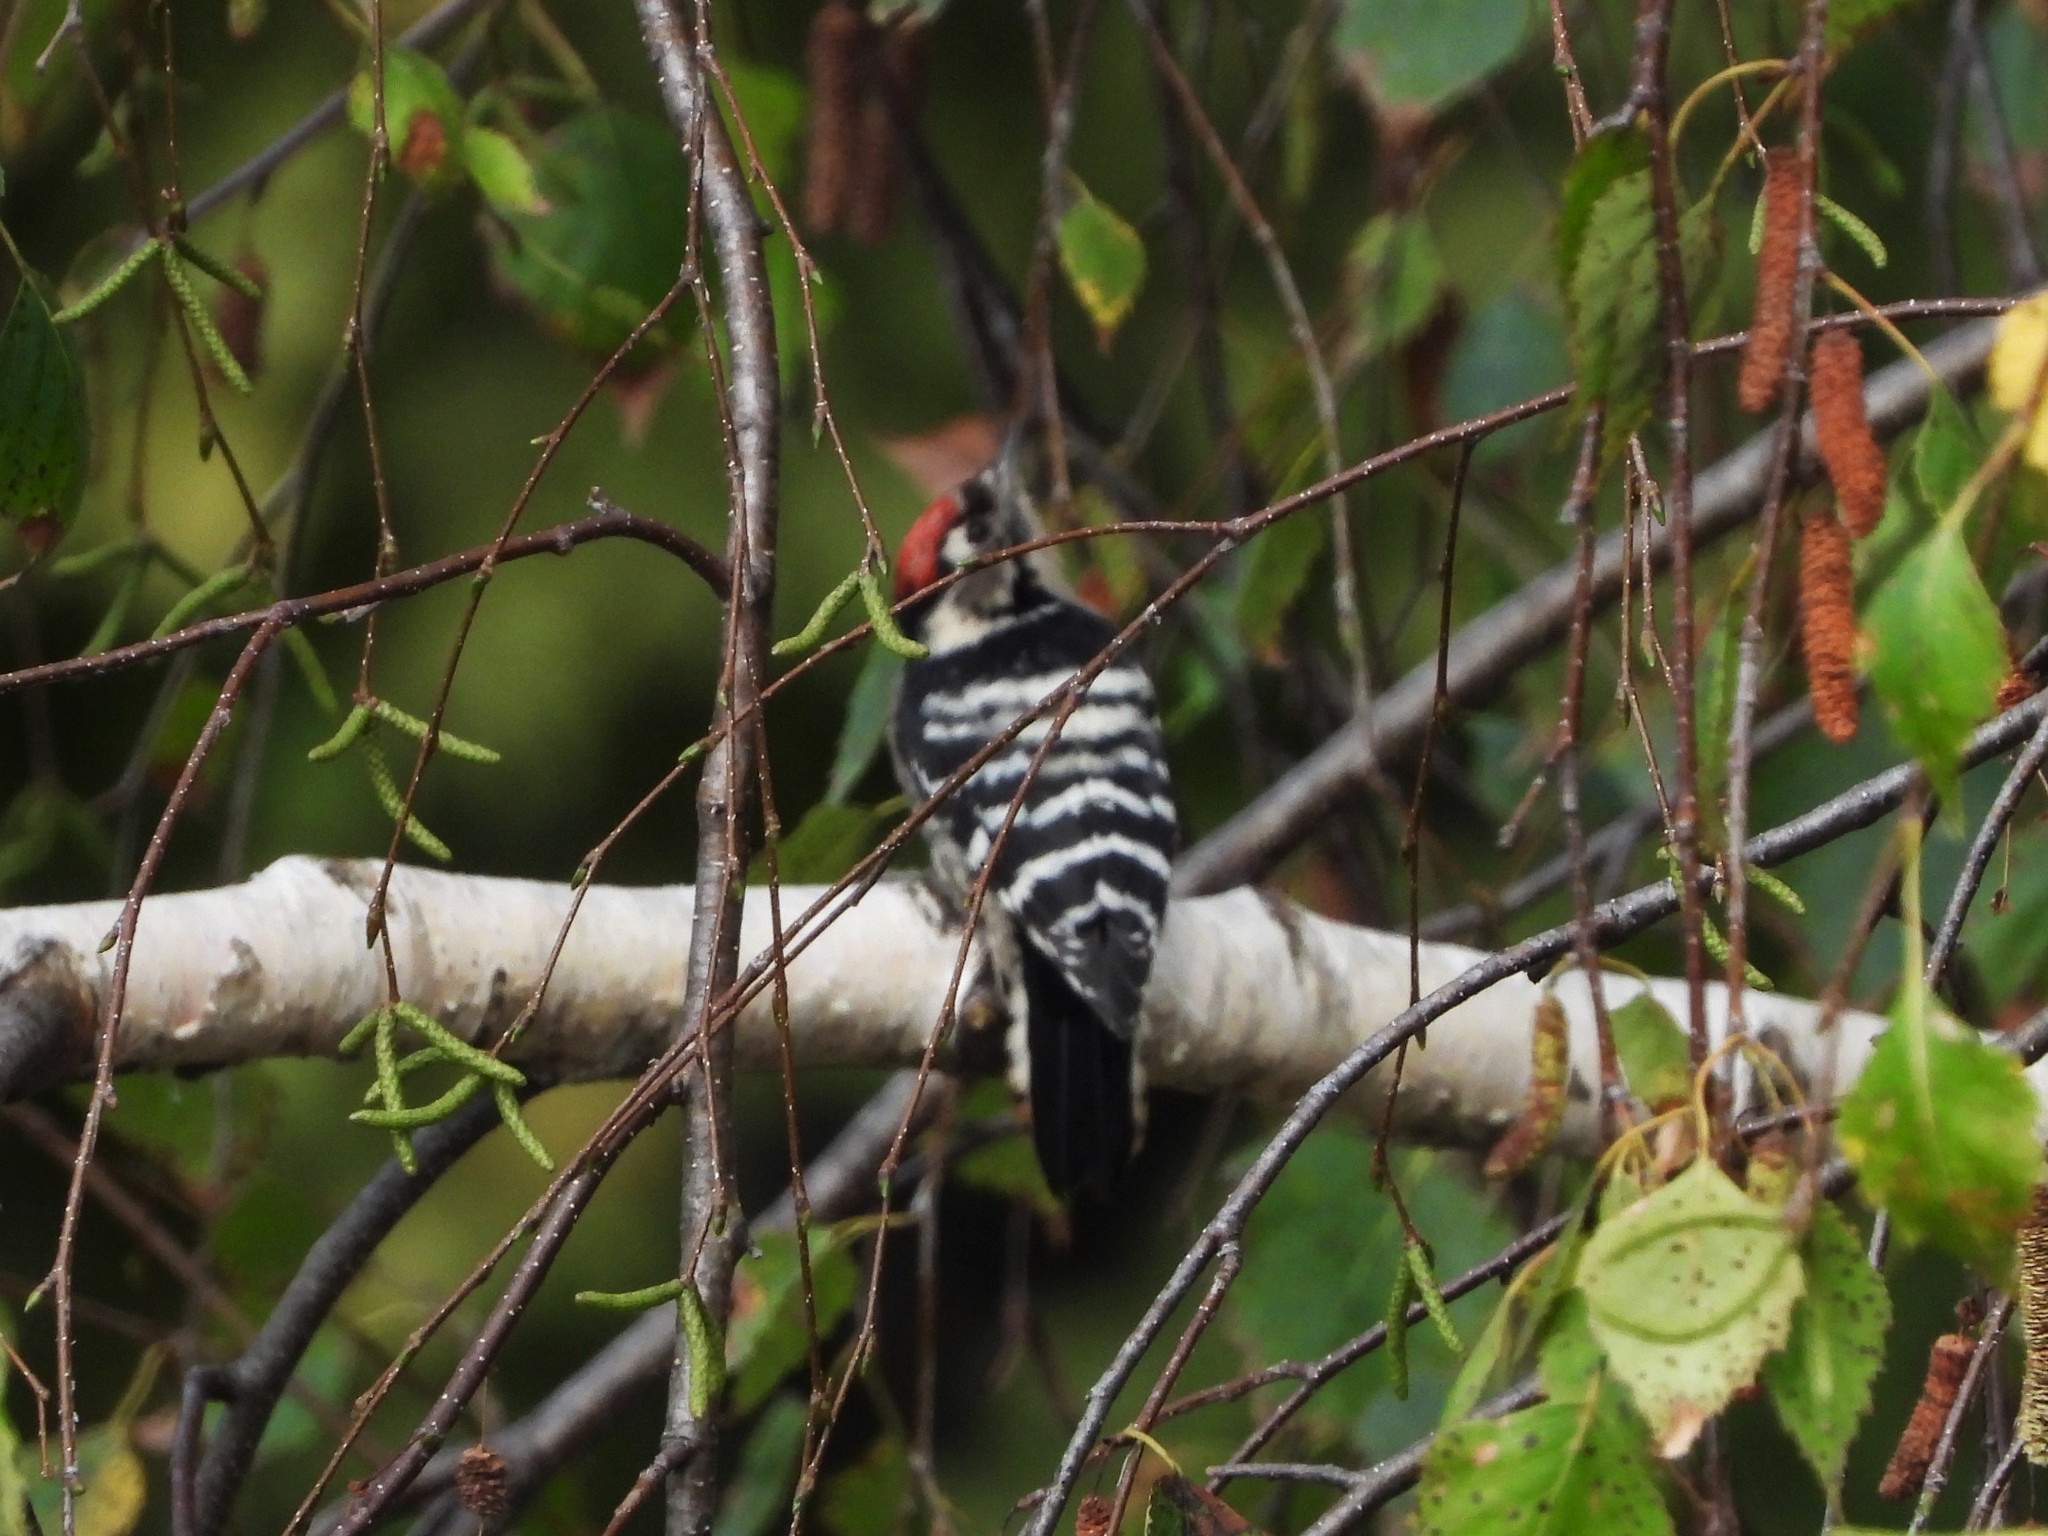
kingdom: Animalia
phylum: Chordata
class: Aves
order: Piciformes
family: Picidae
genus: Dryobates
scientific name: Dryobates minor
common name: Lesser spotted woodpecker
